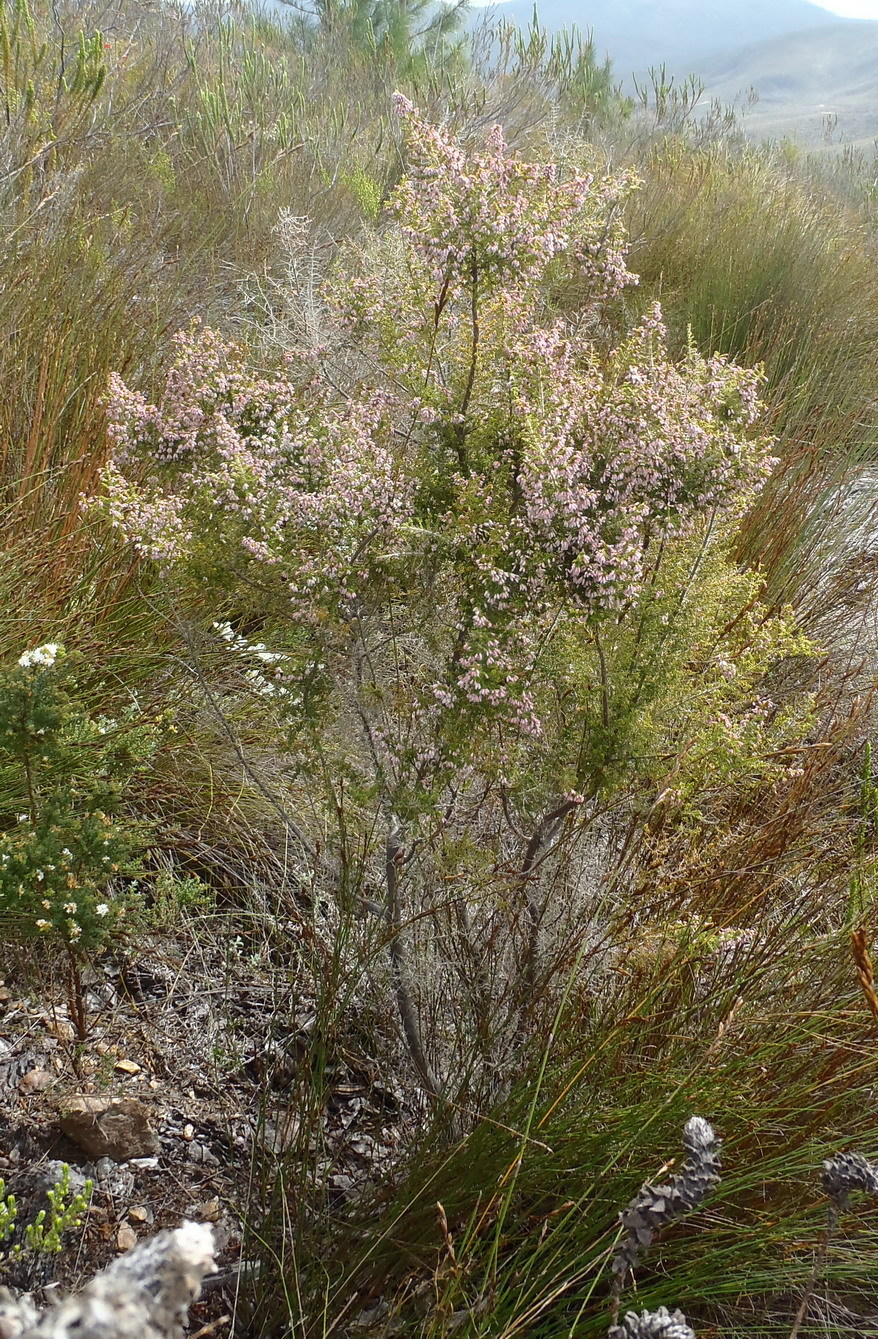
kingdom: Plantae
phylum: Tracheophyta
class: Magnoliopsida
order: Ericales
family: Ericaceae
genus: Erica
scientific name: Erica scabriuscula
